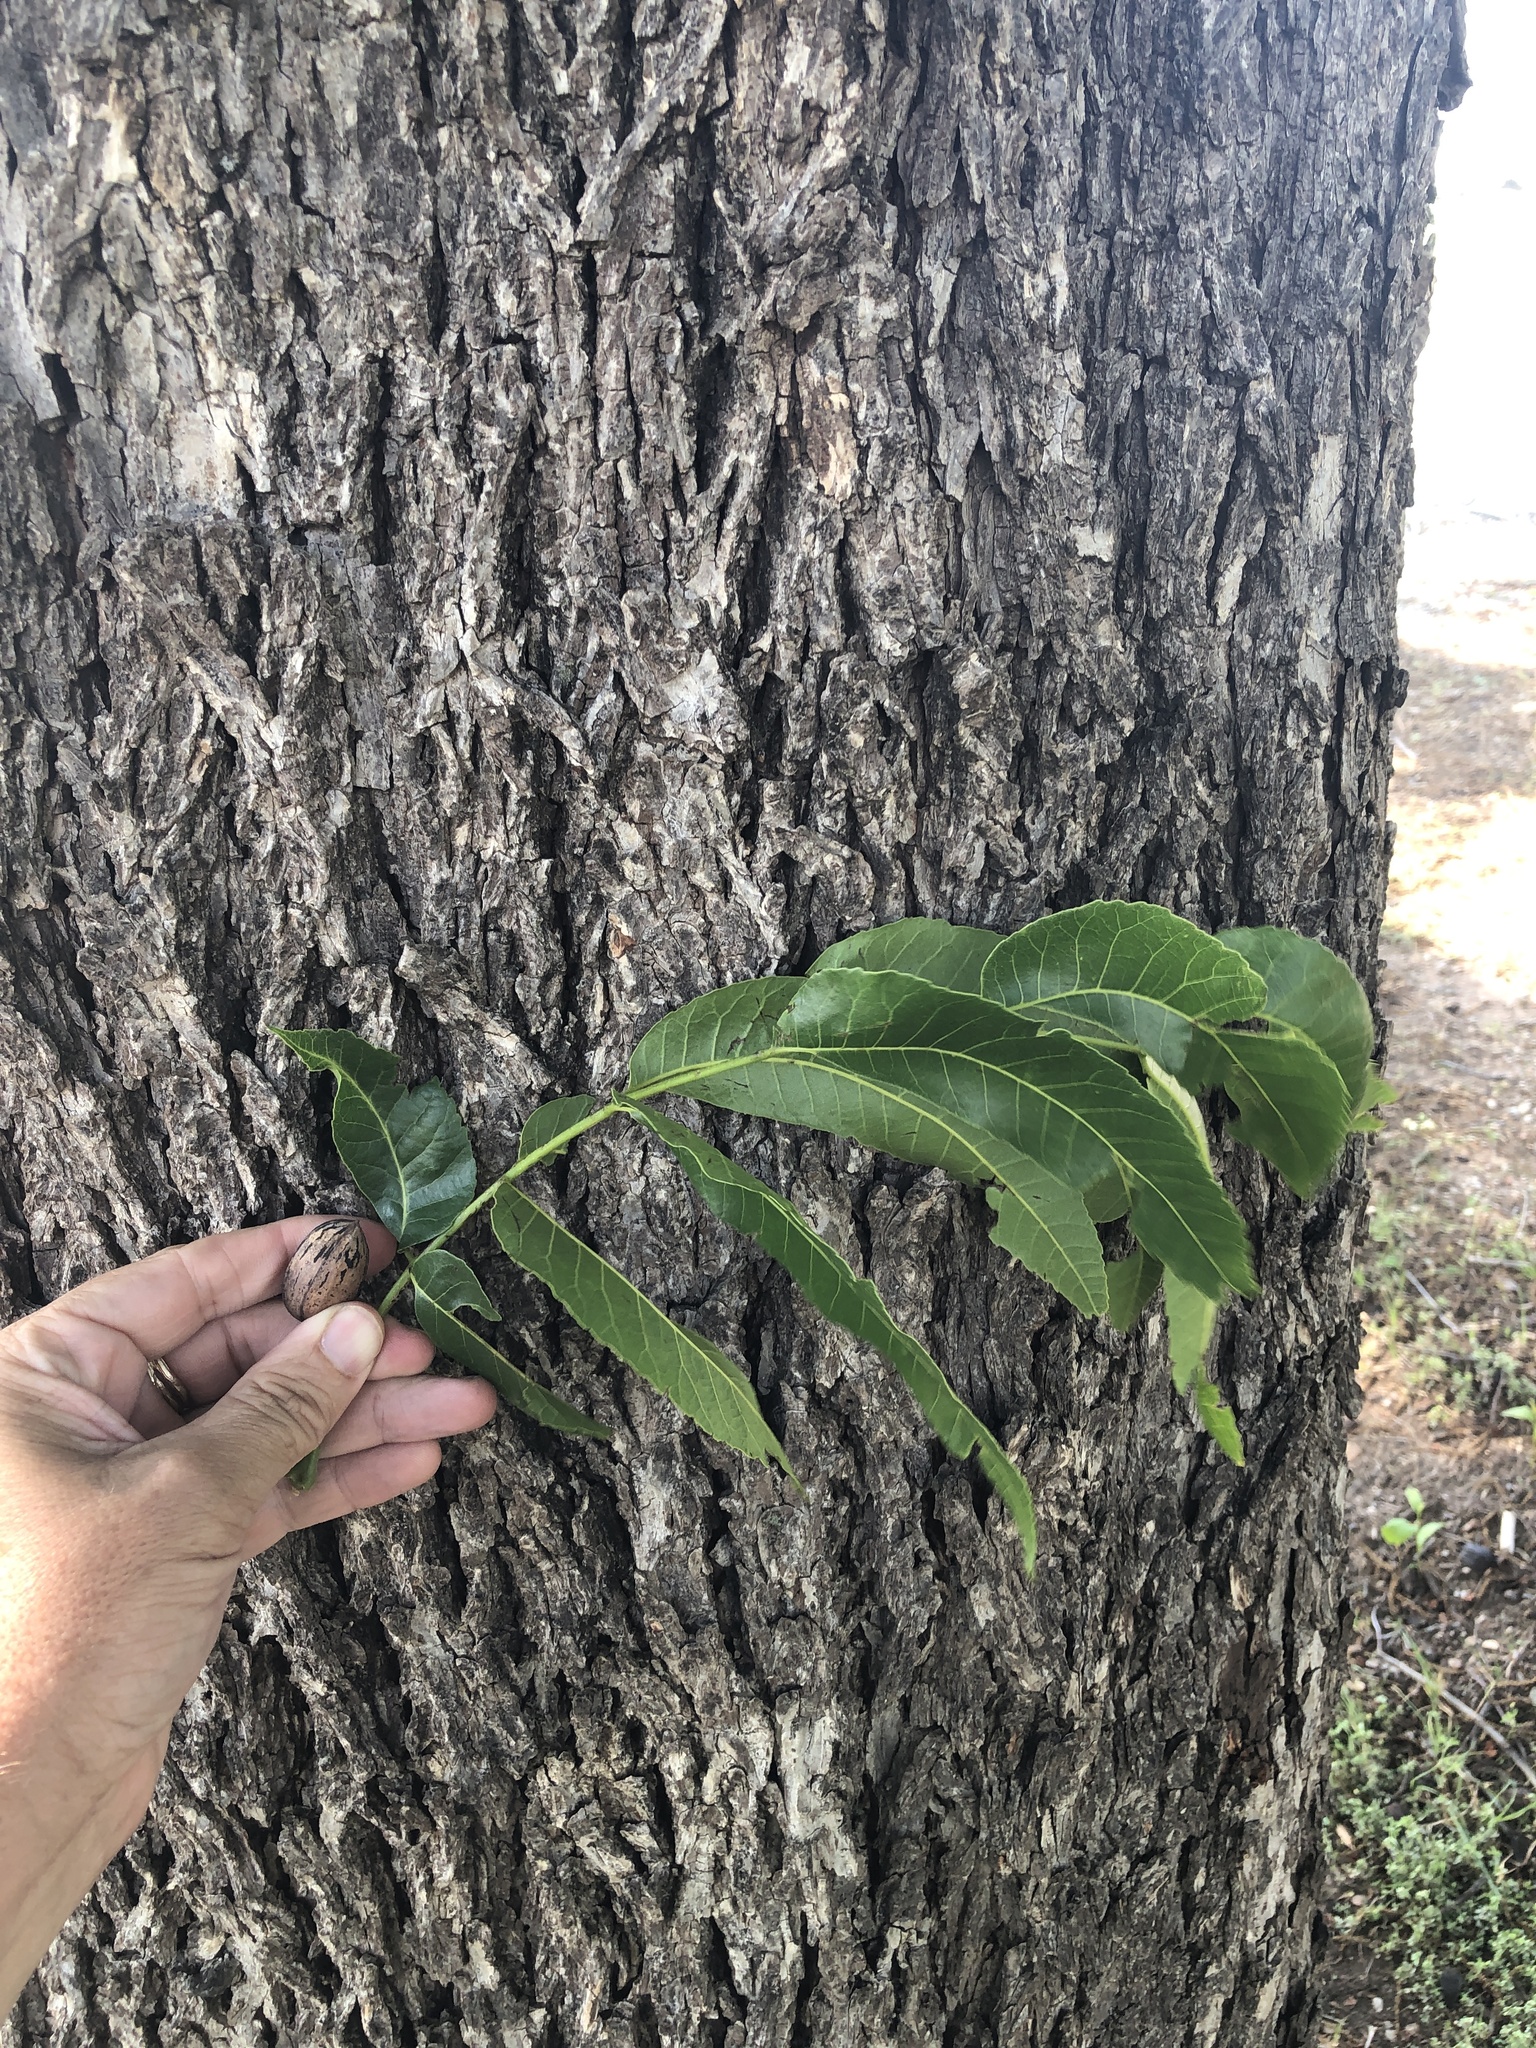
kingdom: Plantae
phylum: Tracheophyta
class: Magnoliopsida
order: Fagales
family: Juglandaceae
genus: Carya
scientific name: Carya illinoinensis
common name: Pecan
